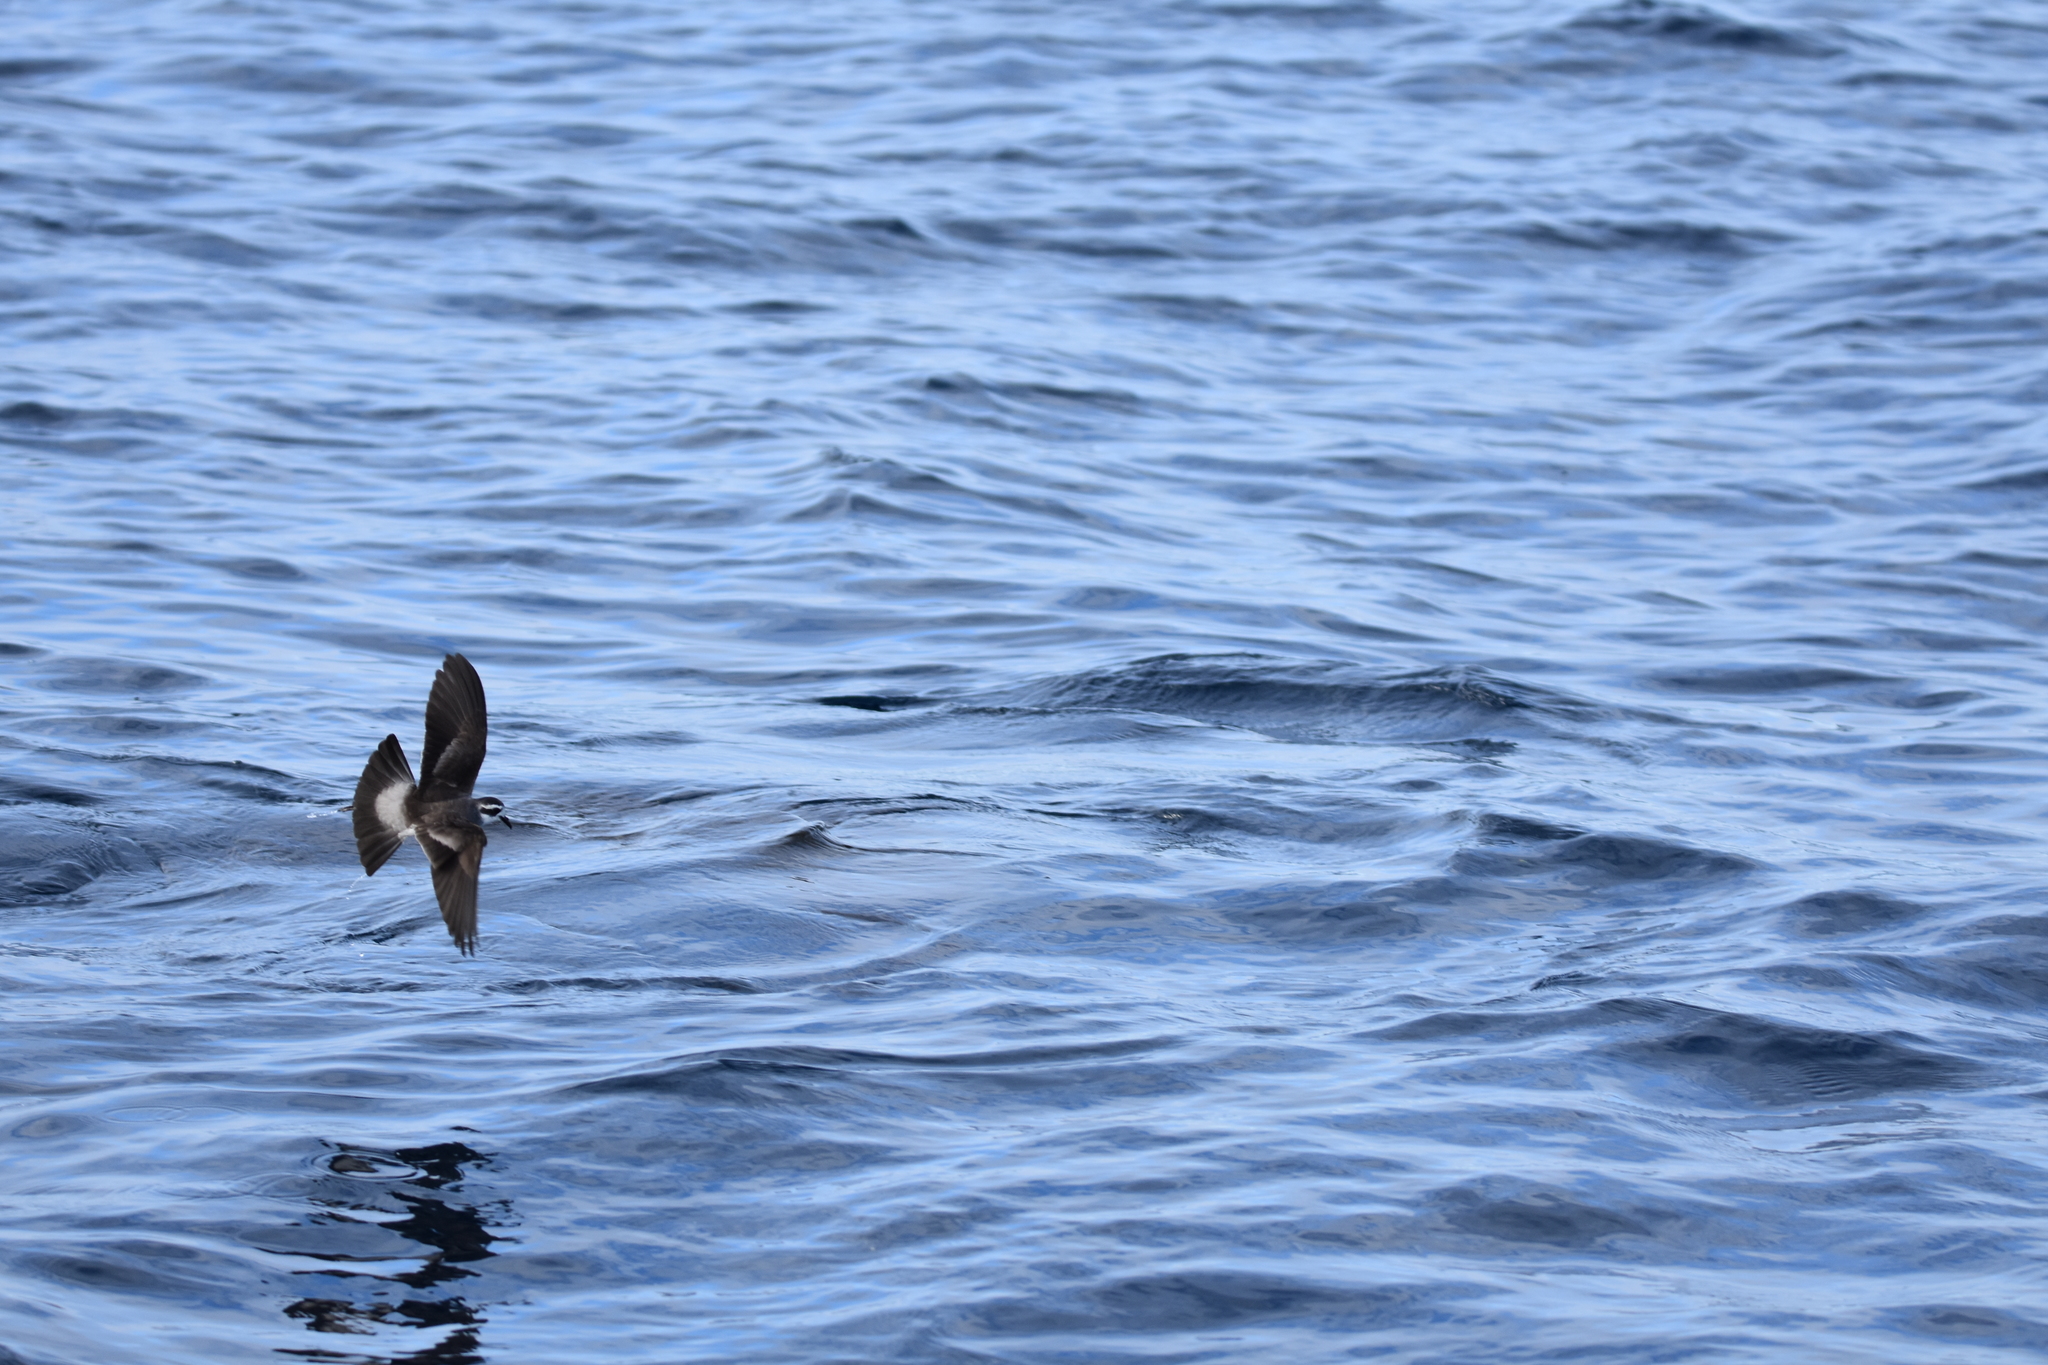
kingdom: Animalia
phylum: Chordata
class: Aves
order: Procellariiformes
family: Hydrobatidae
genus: Pelagodroma
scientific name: Pelagodroma marina
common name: White-faced storm-petrel
